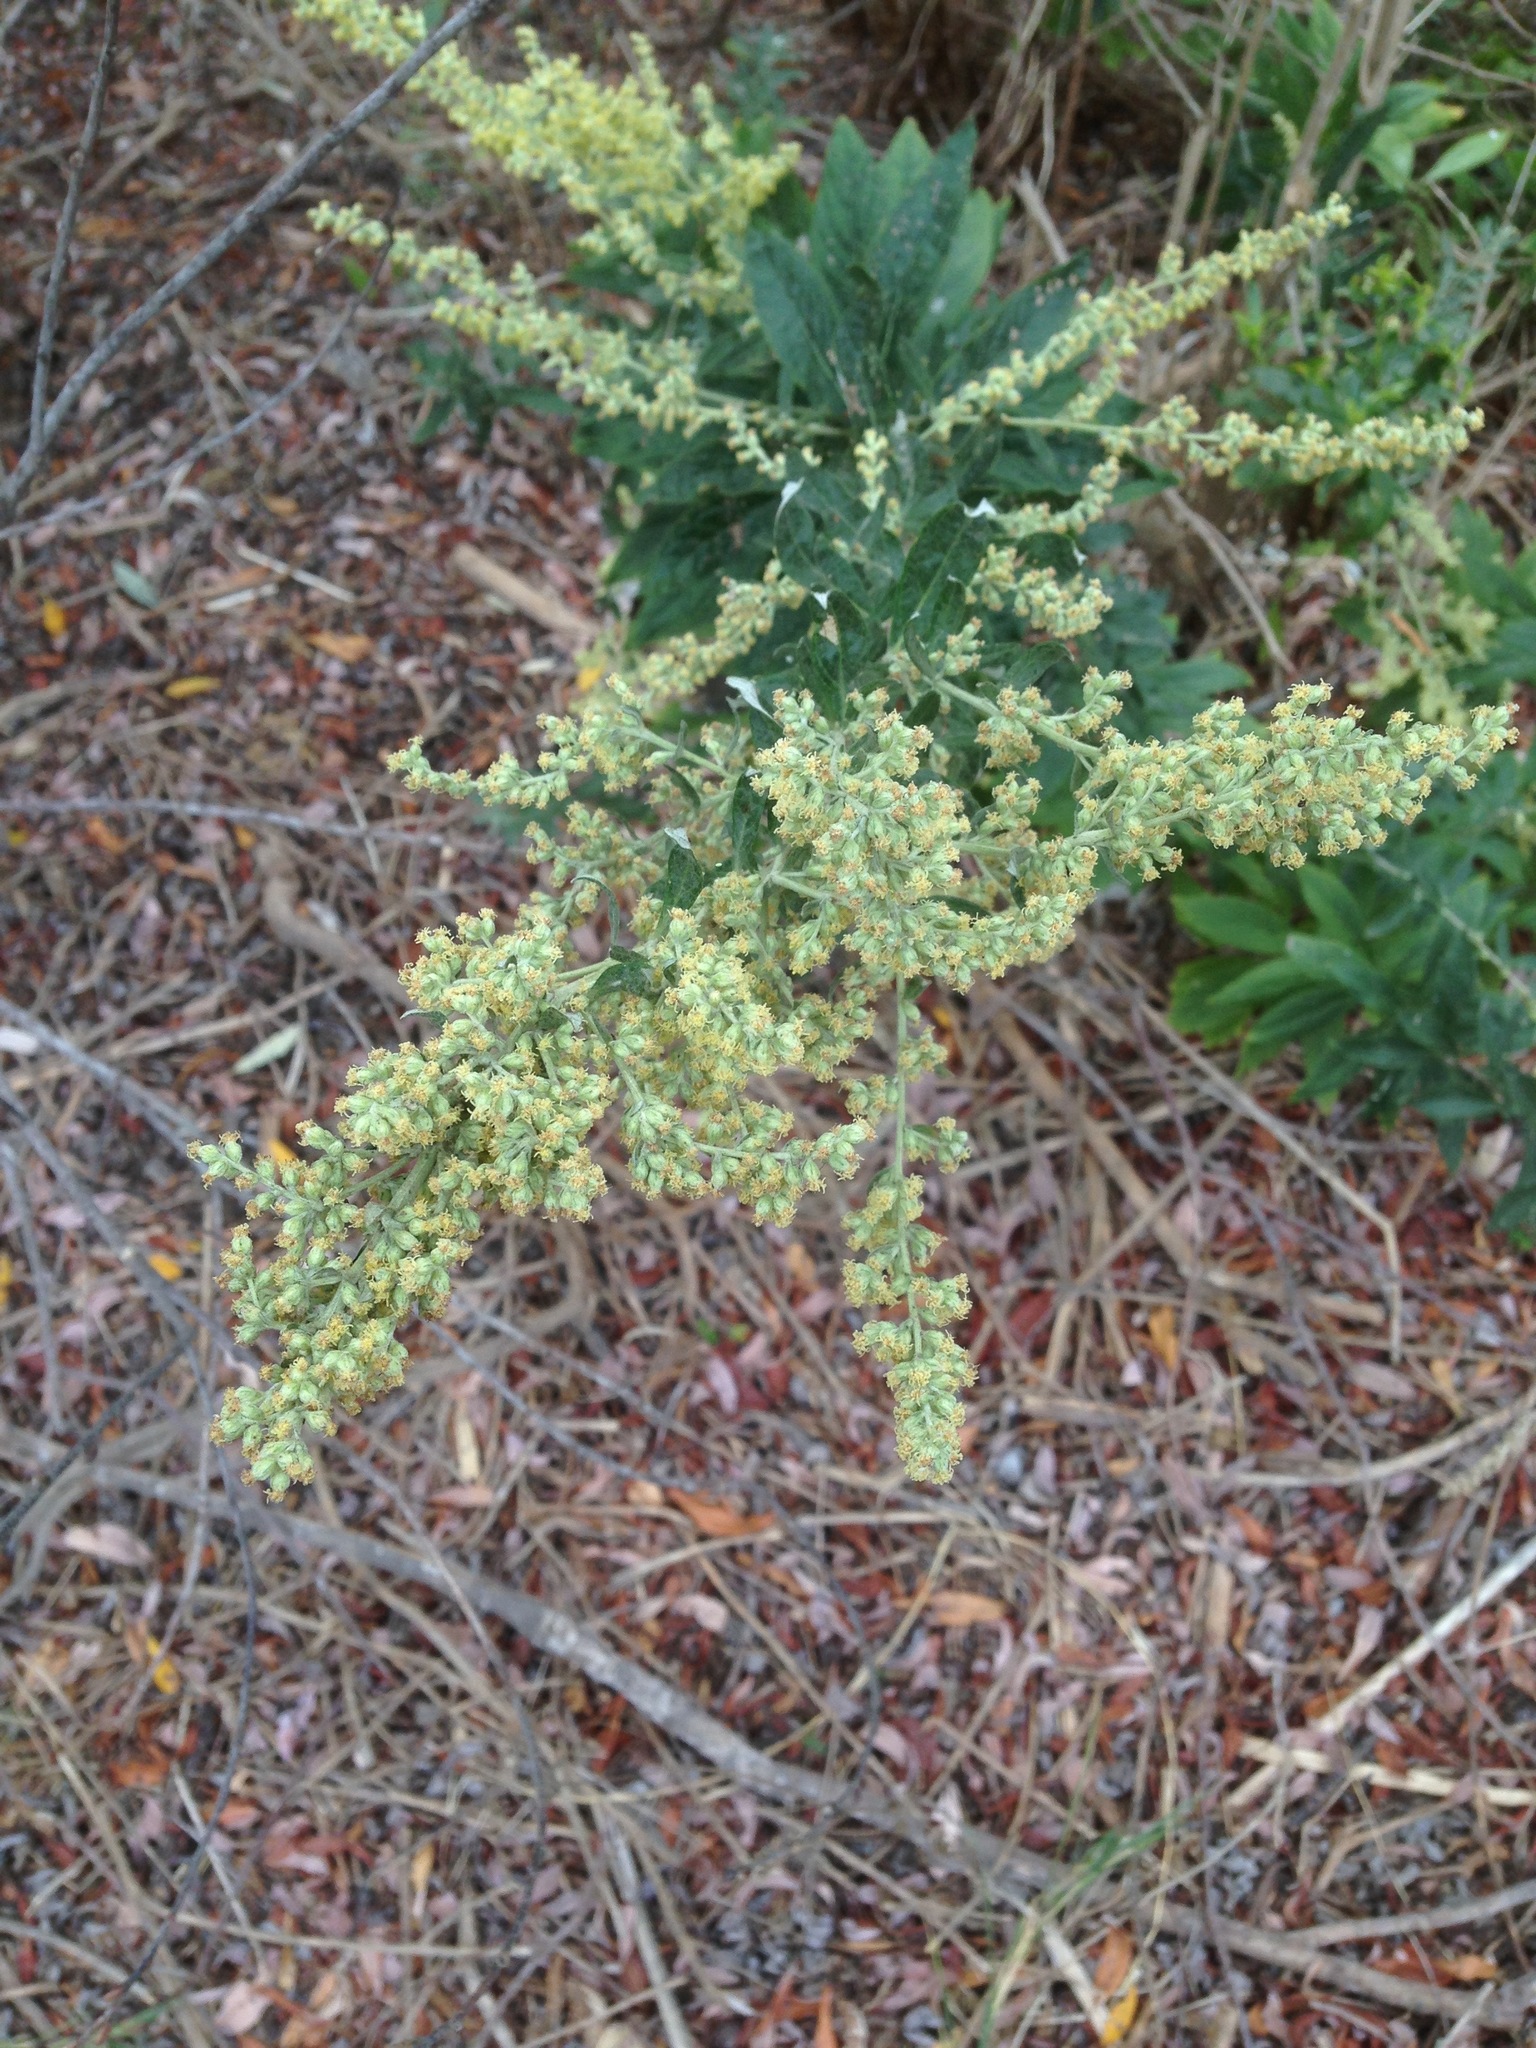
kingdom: Plantae
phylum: Tracheophyta
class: Magnoliopsida
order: Asterales
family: Asteraceae
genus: Artemisia
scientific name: Artemisia douglasiana
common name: Northwest mugwort
